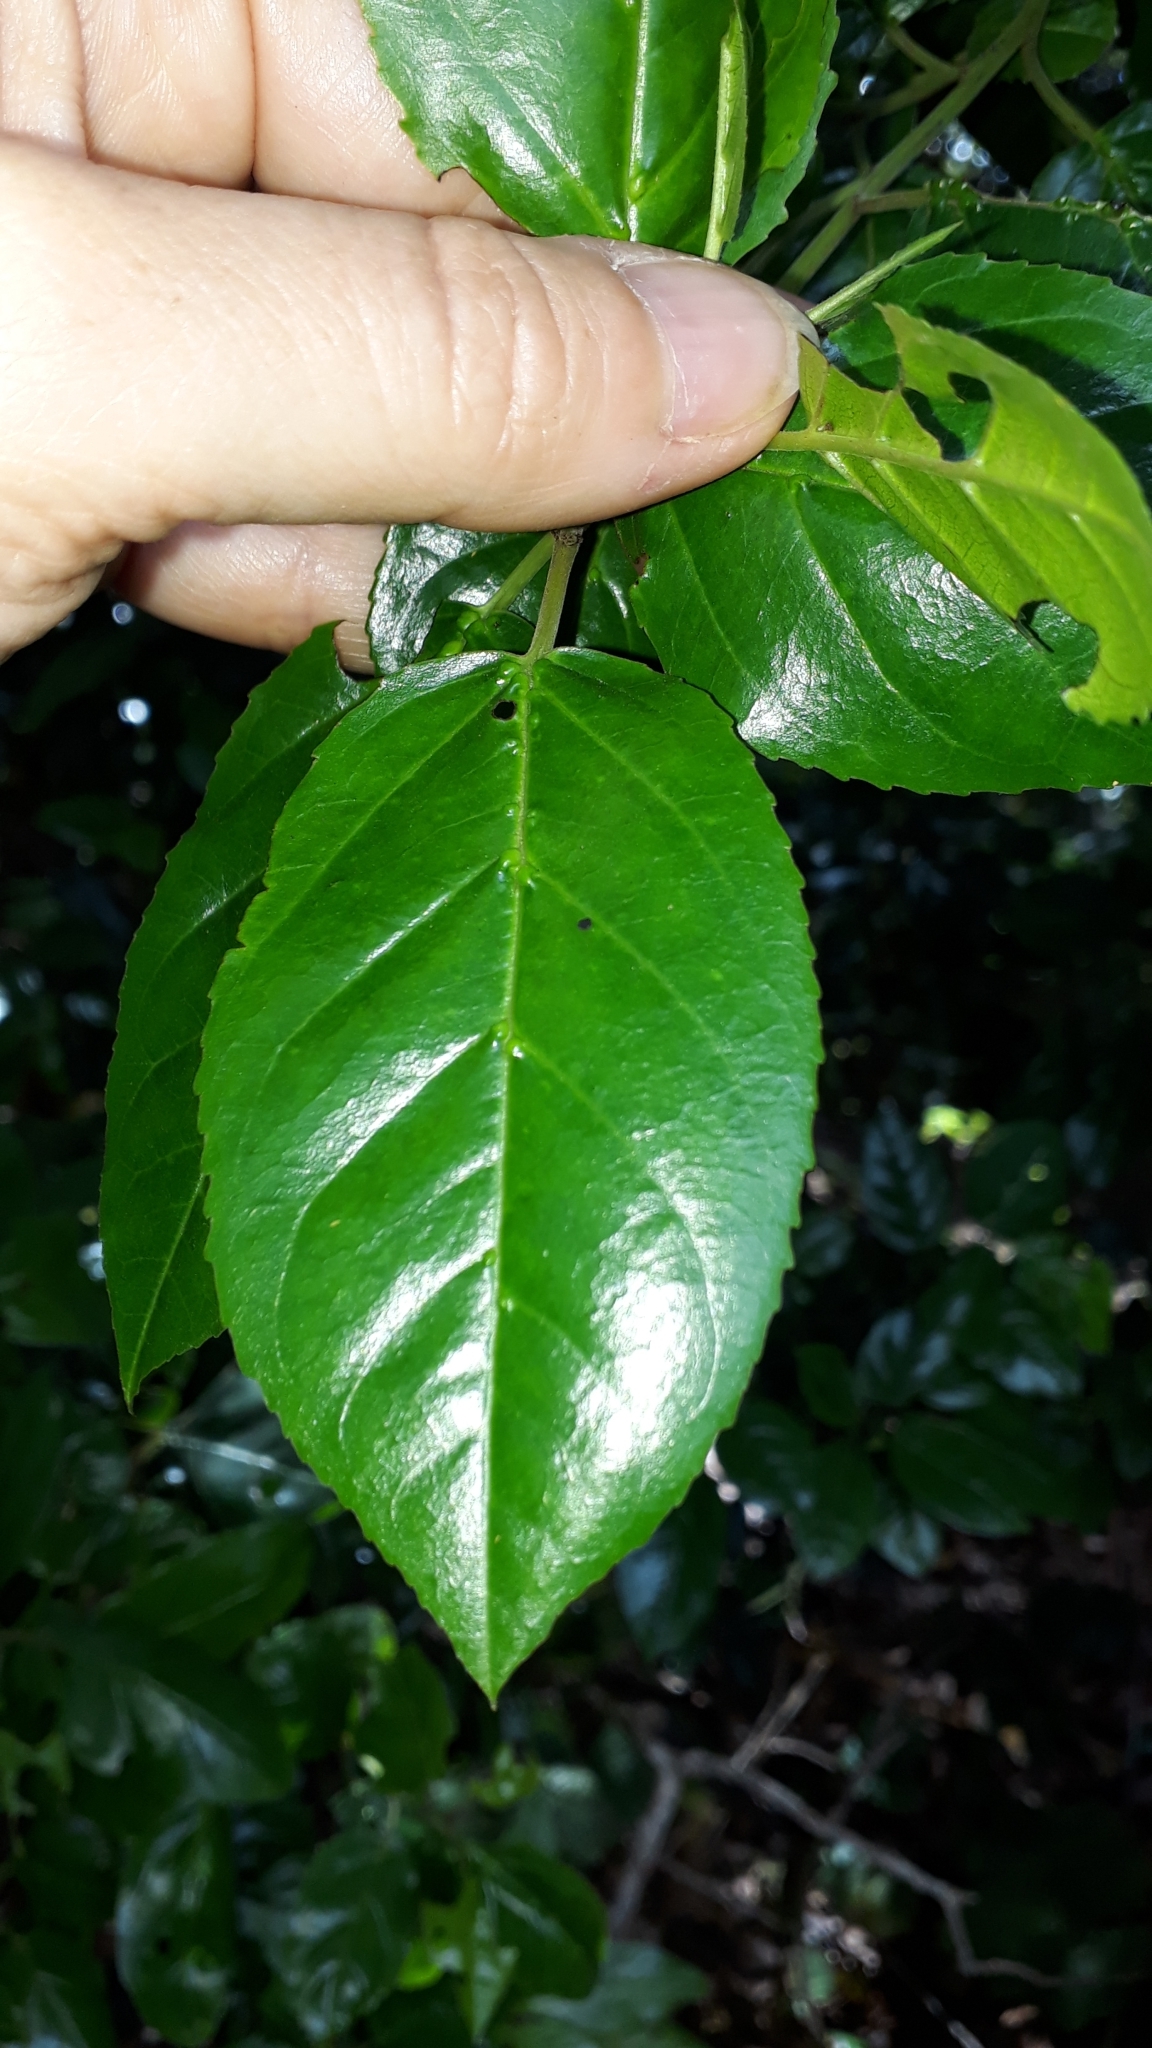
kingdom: Plantae
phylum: Tracheophyta
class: Magnoliopsida
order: Rosales
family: Rhamnaceae
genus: Rhamnus
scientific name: Rhamnus glandulosa
